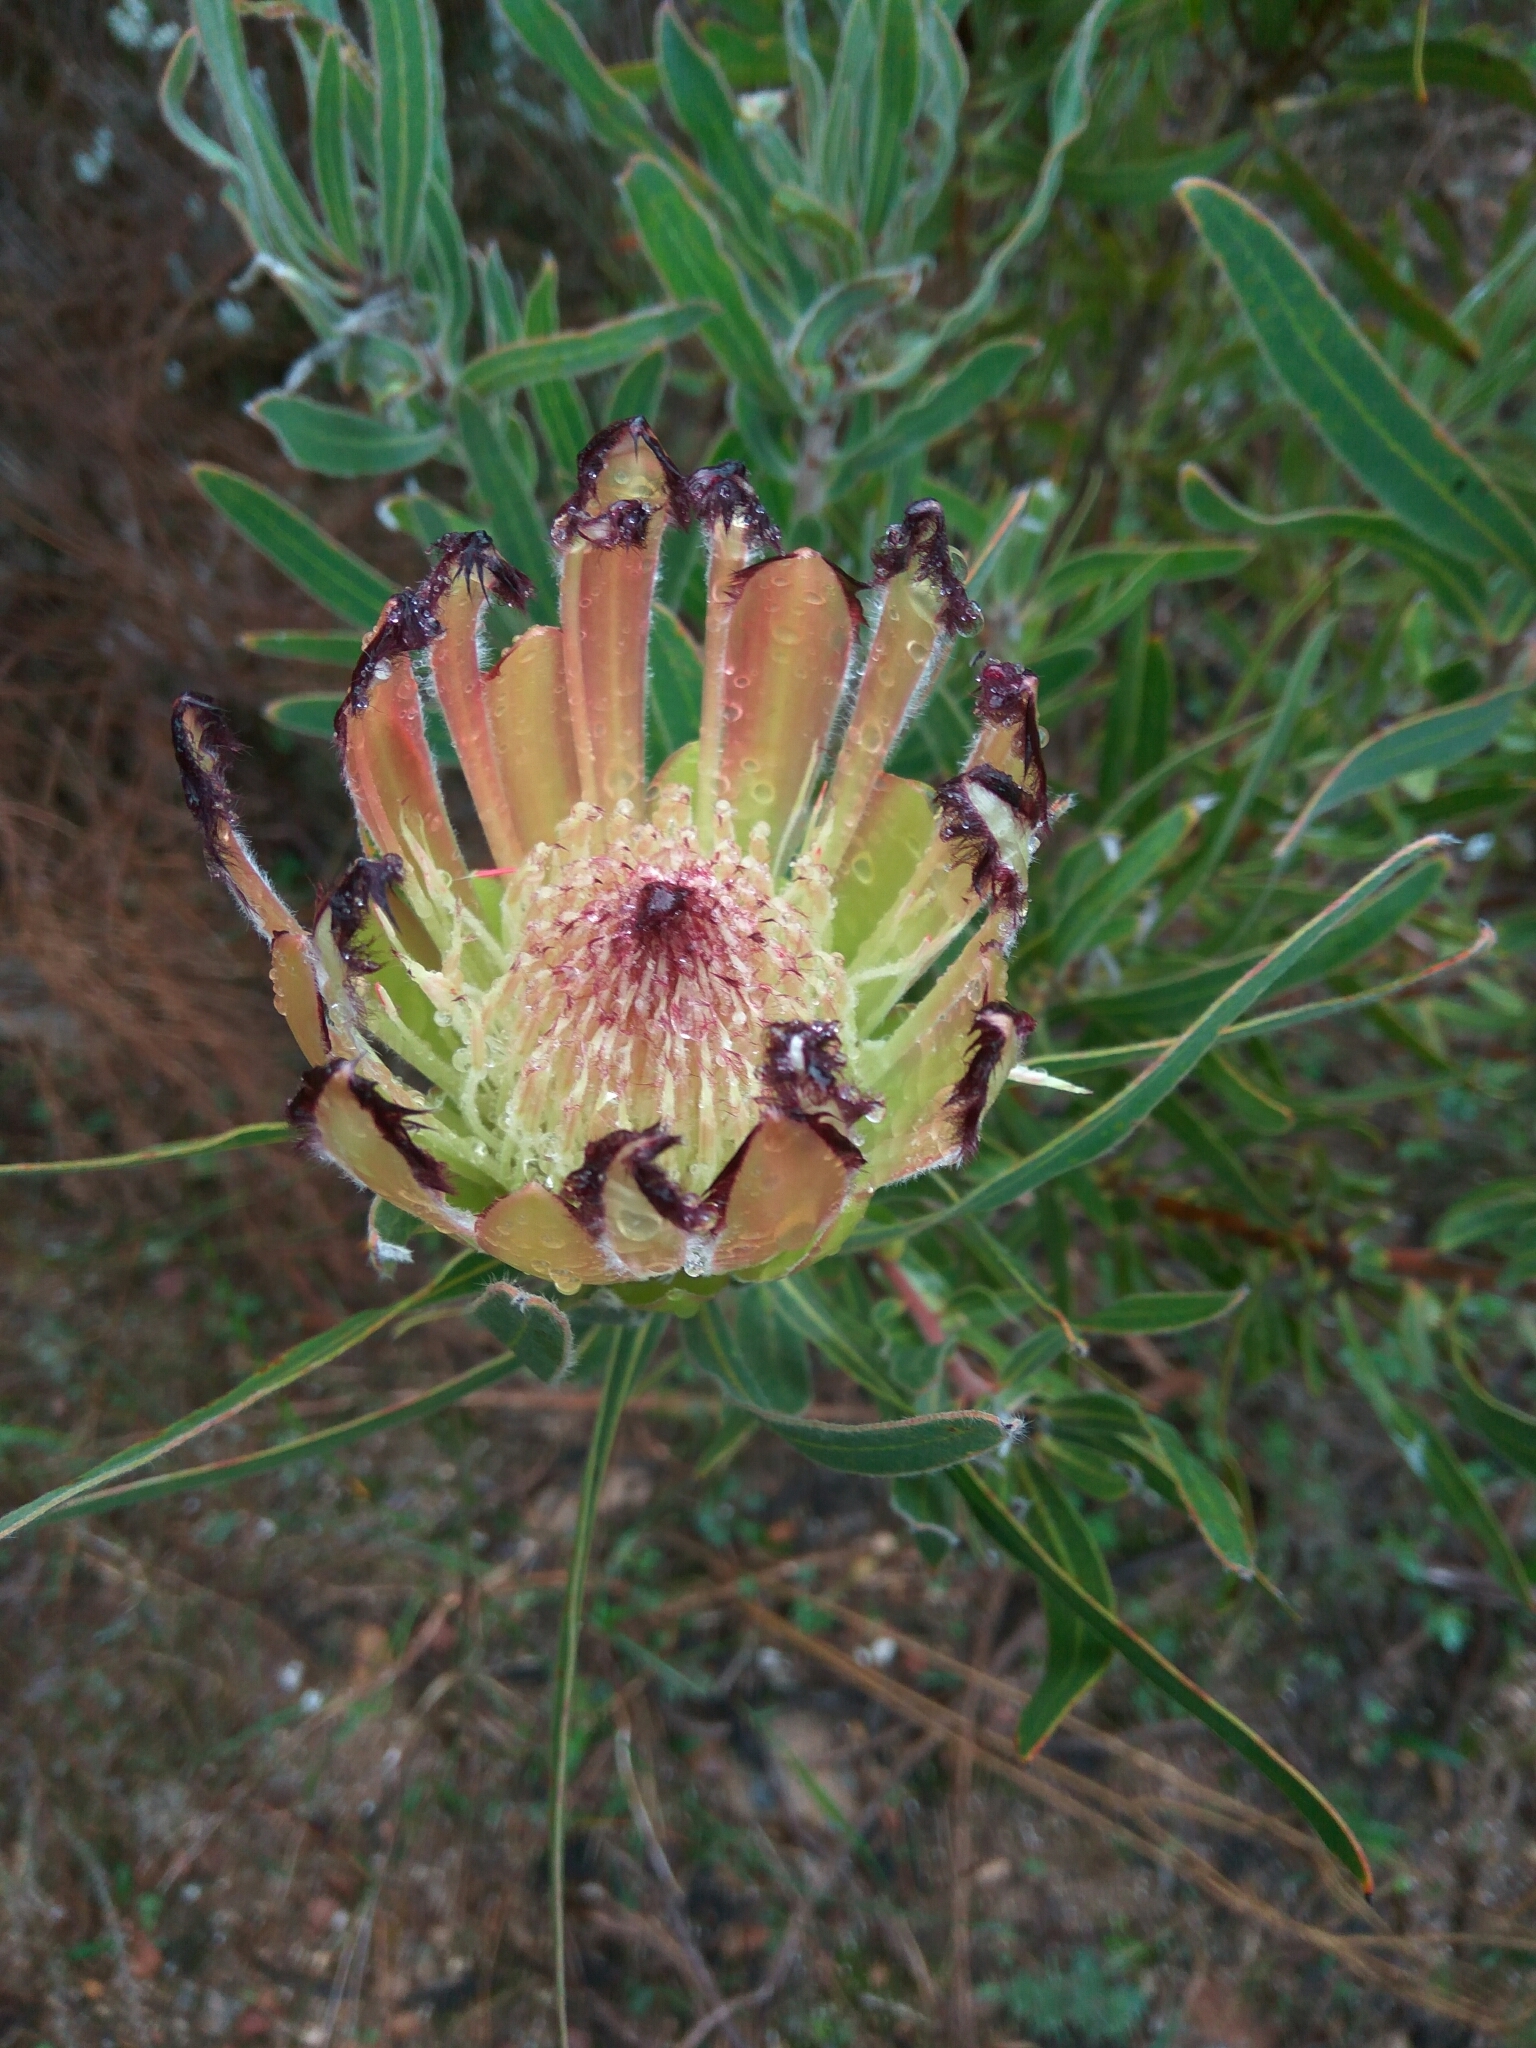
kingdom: Plantae
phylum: Tracheophyta
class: Magnoliopsida
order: Proteales
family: Proteaceae
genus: Protea
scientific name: Protea burchellii
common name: Burchell's sugarbush
